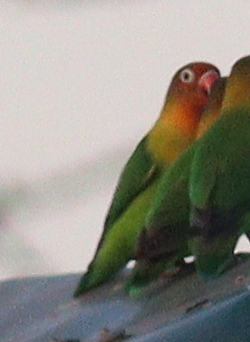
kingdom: Animalia
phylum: Chordata
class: Aves
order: Psittaciformes
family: Psittacidae
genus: Agapornis
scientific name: Agapornis fischeri
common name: Fischer's lovebird
